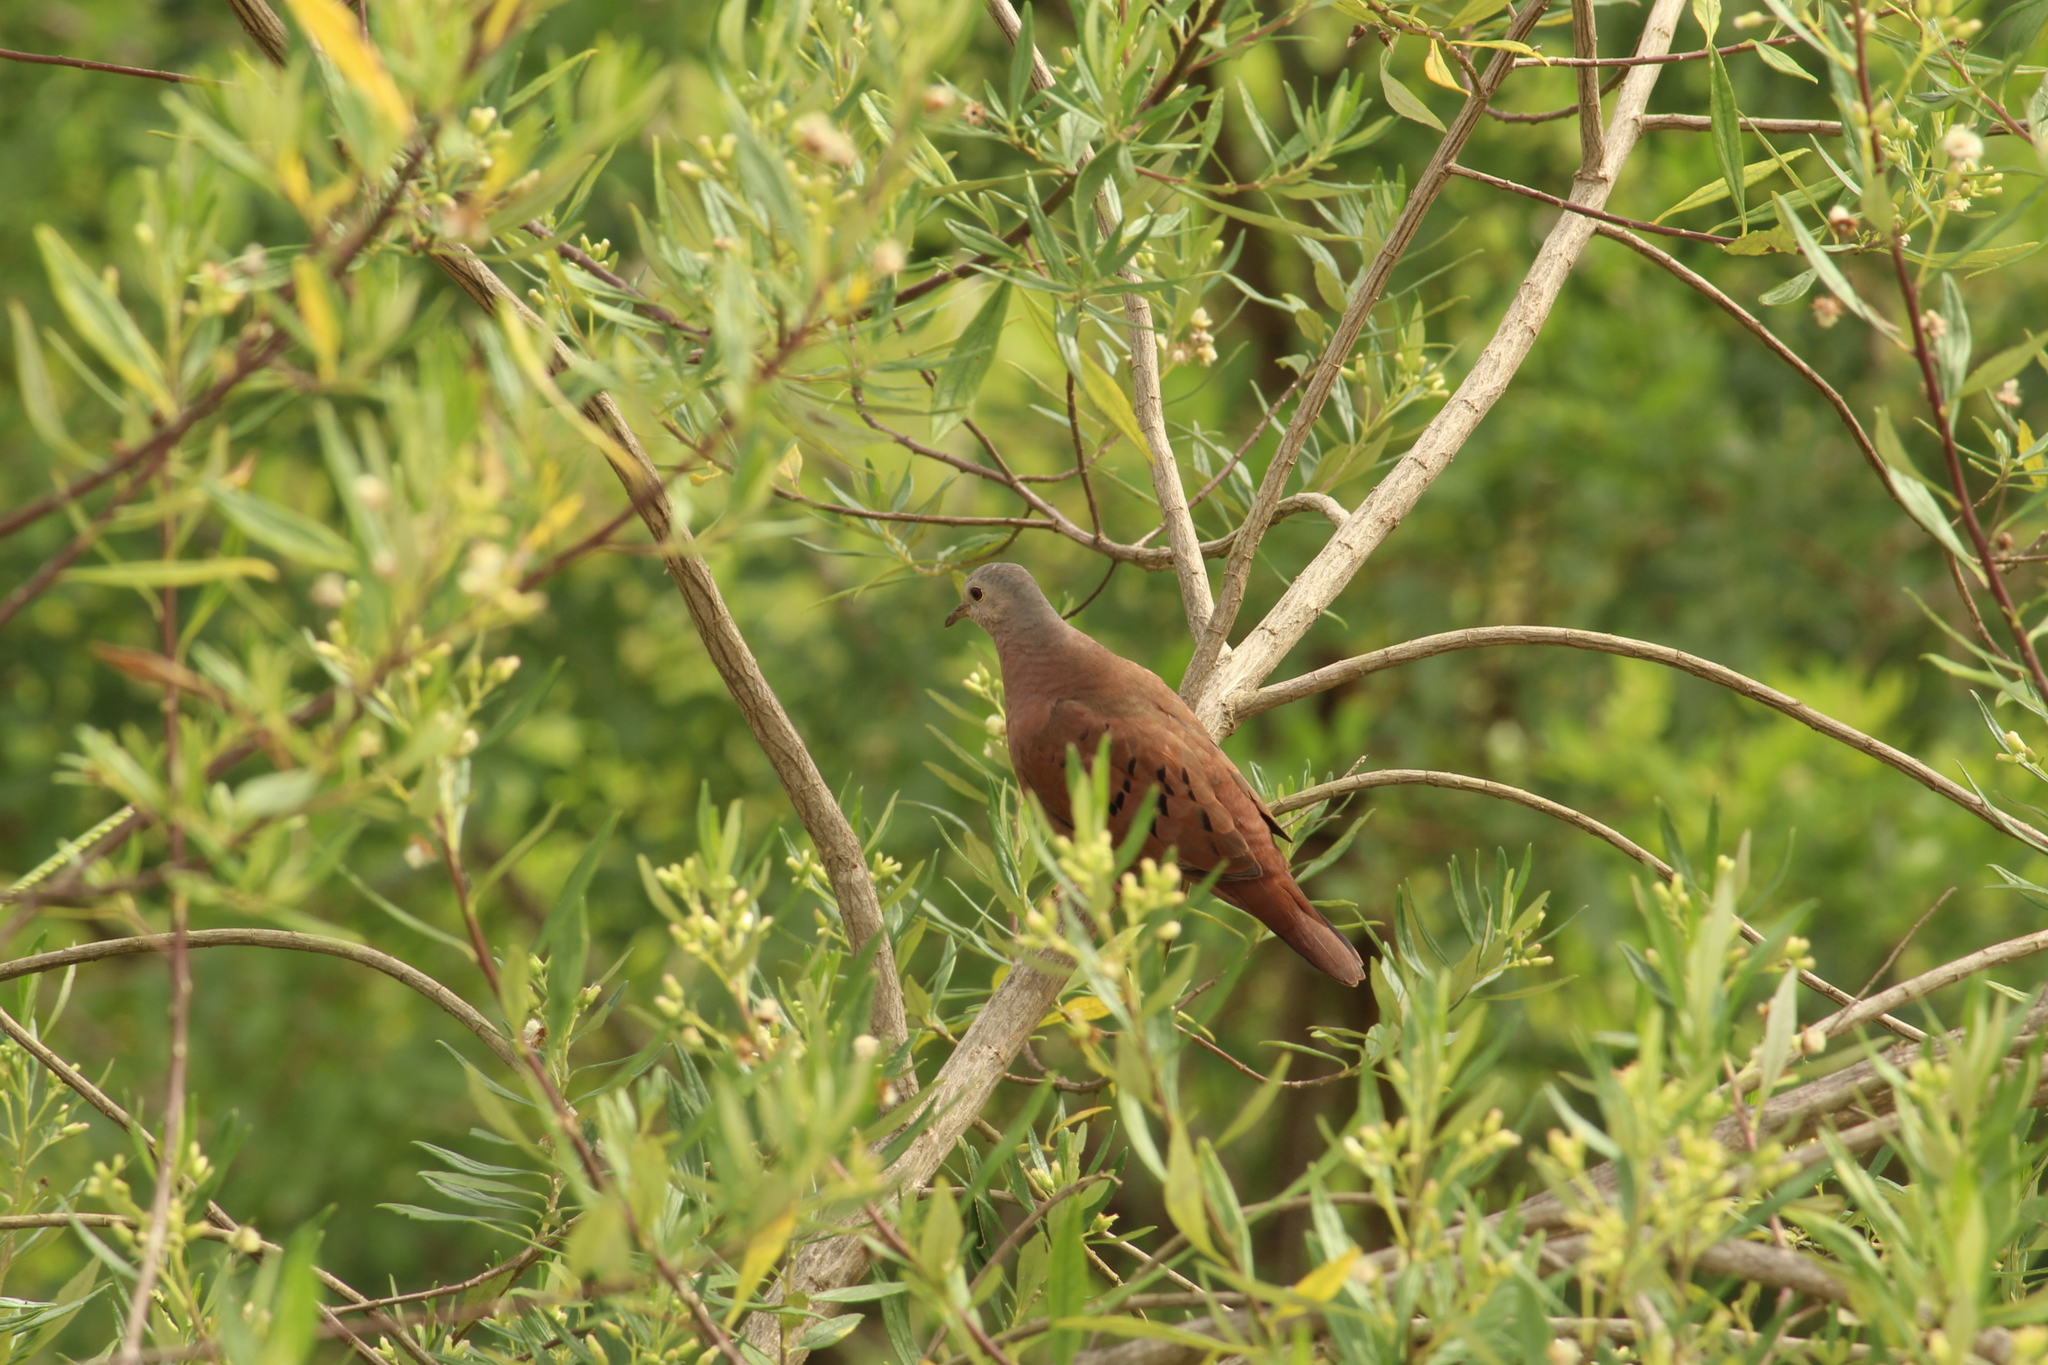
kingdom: Animalia
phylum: Chordata
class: Aves
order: Columbiformes
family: Columbidae
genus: Columbina
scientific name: Columbina talpacoti
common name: Ruddy ground dove
